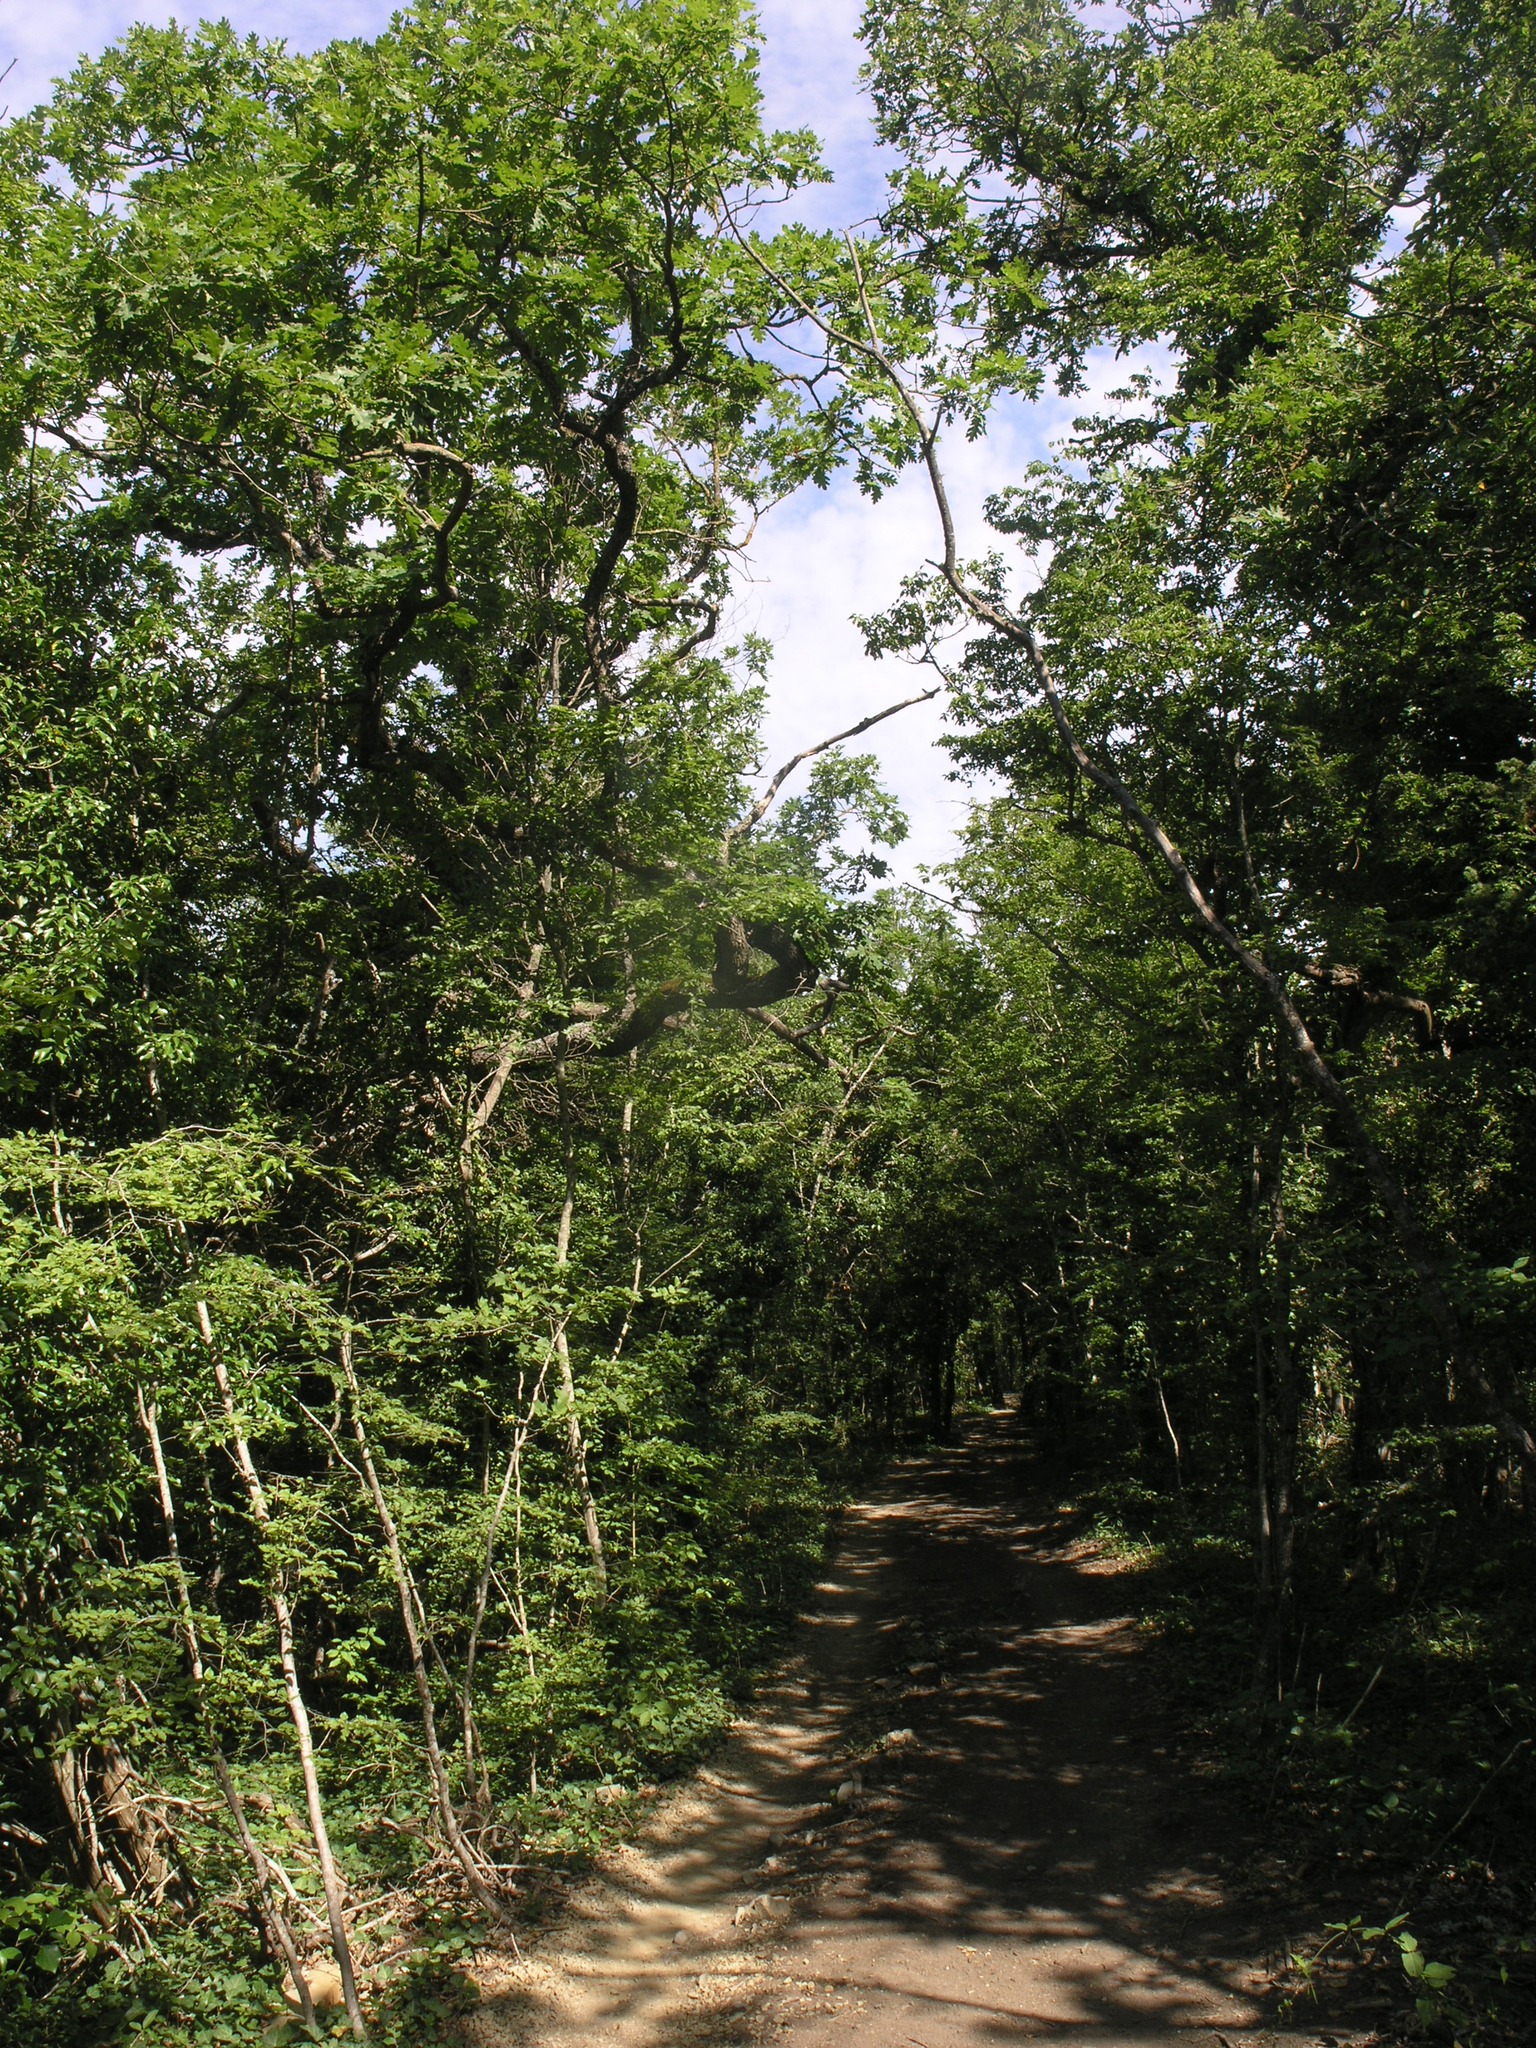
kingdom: Plantae
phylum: Tracheophyta
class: Magnoliopsida
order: Fagales
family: Fagaceae
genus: Quercus
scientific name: Quercus pubescens
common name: Downy oak
